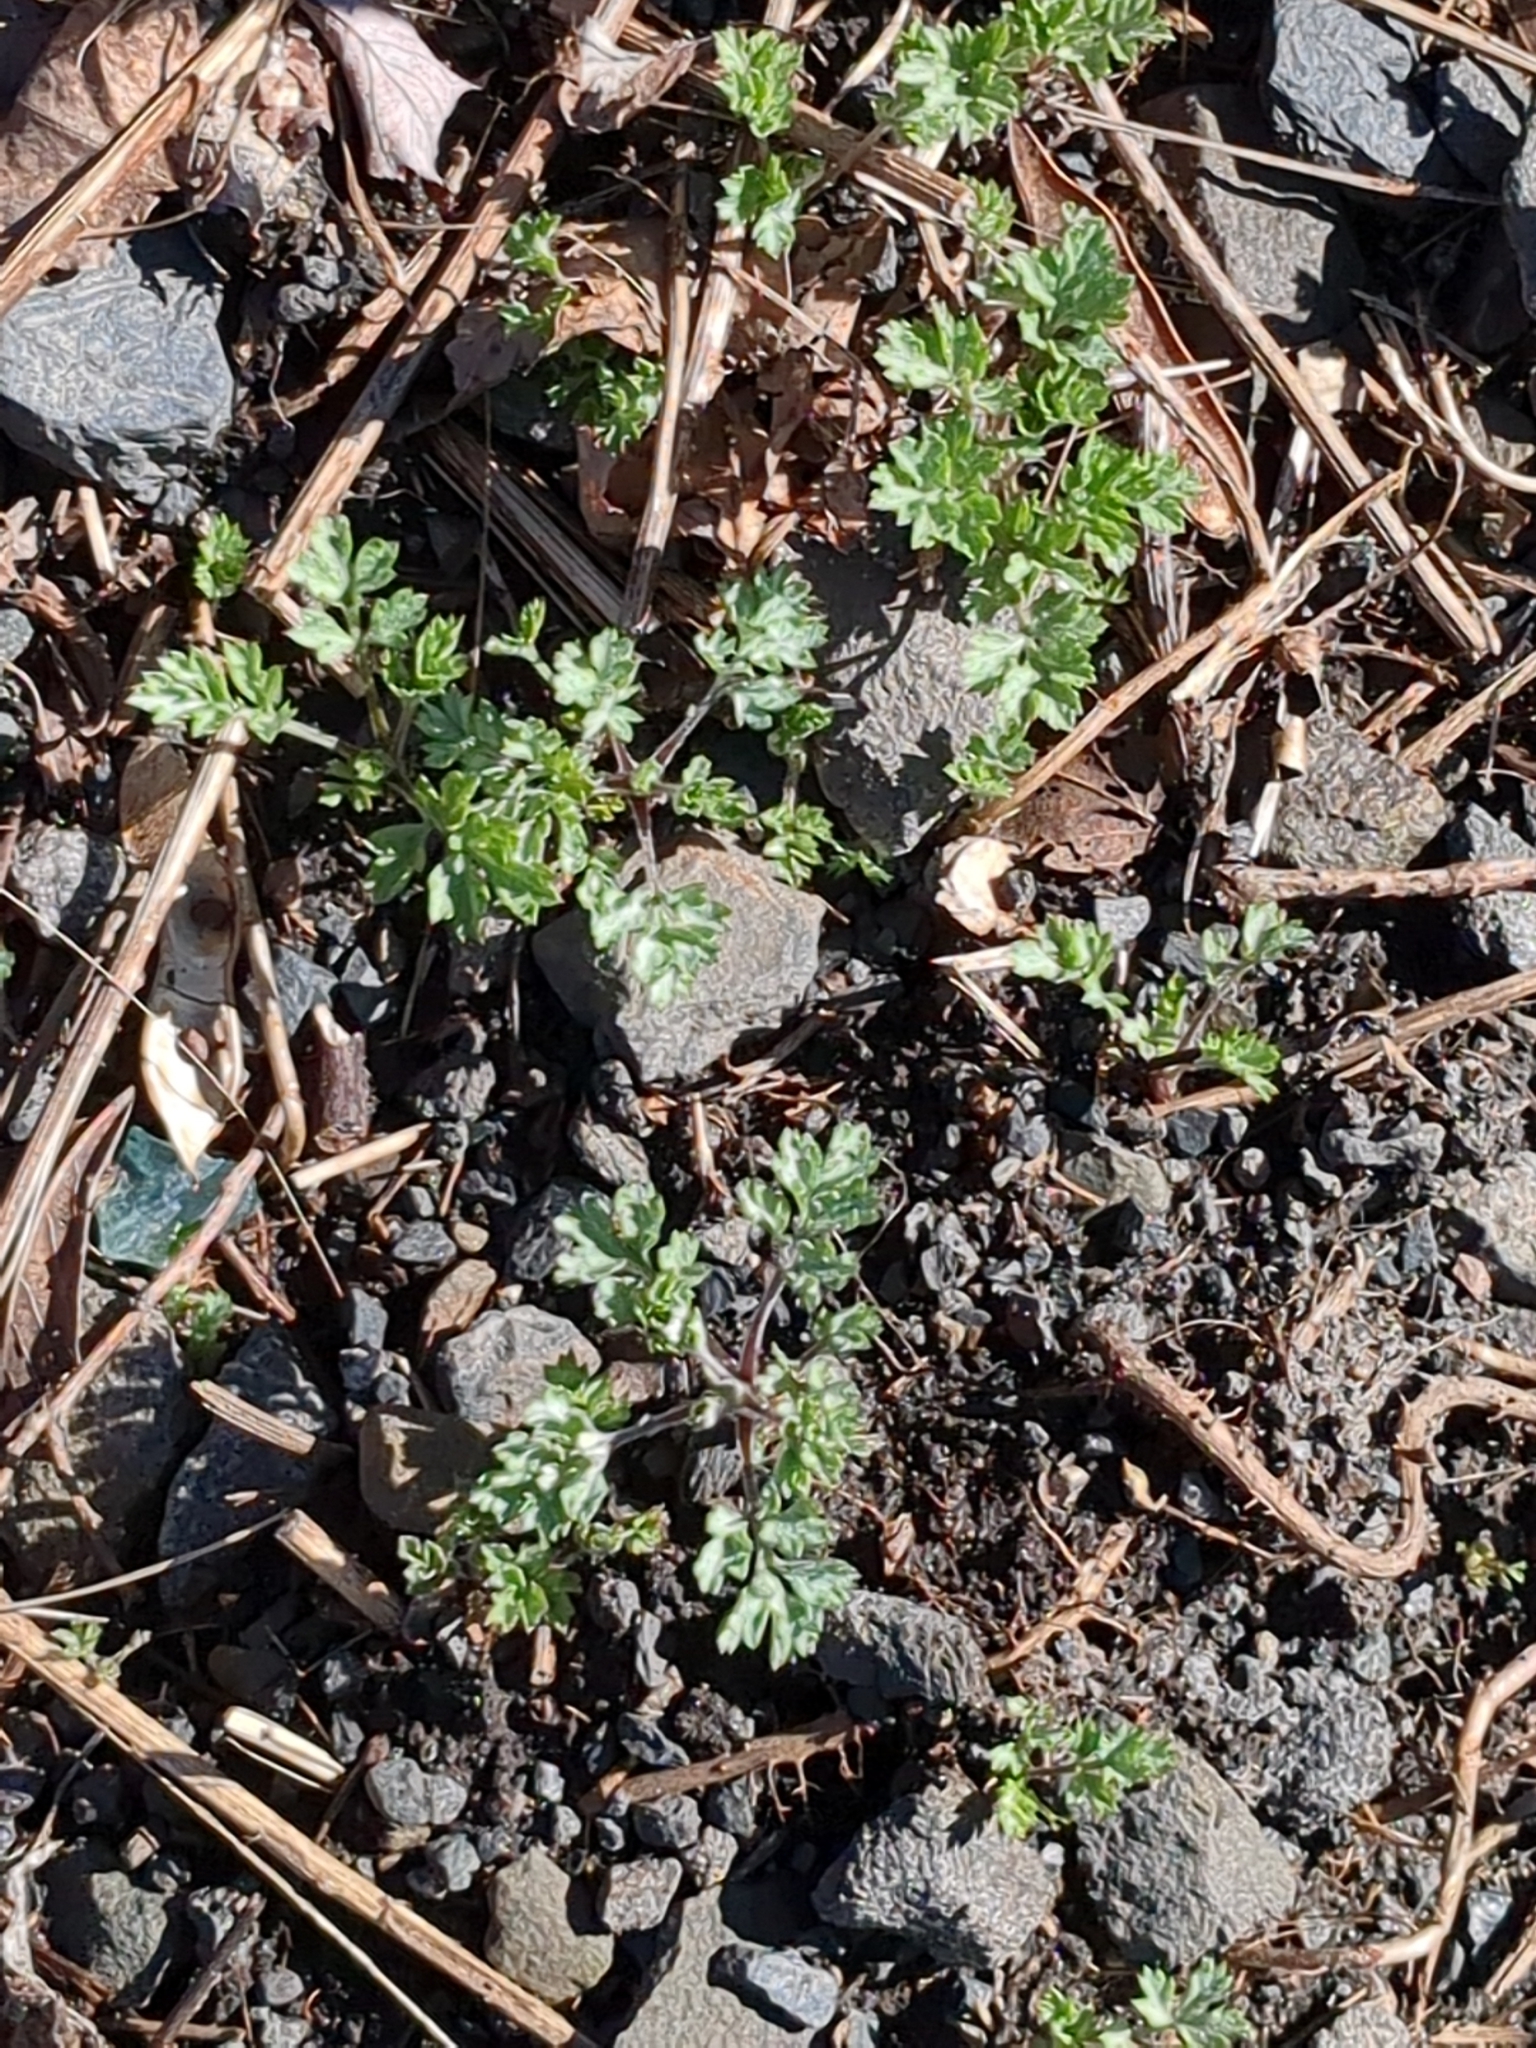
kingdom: Plantae
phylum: Tracheophyta
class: Magnoliopsida
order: Asterales
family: Asteraceae
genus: Artemisia
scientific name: Artemisia vulgaris
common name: Mugwort
